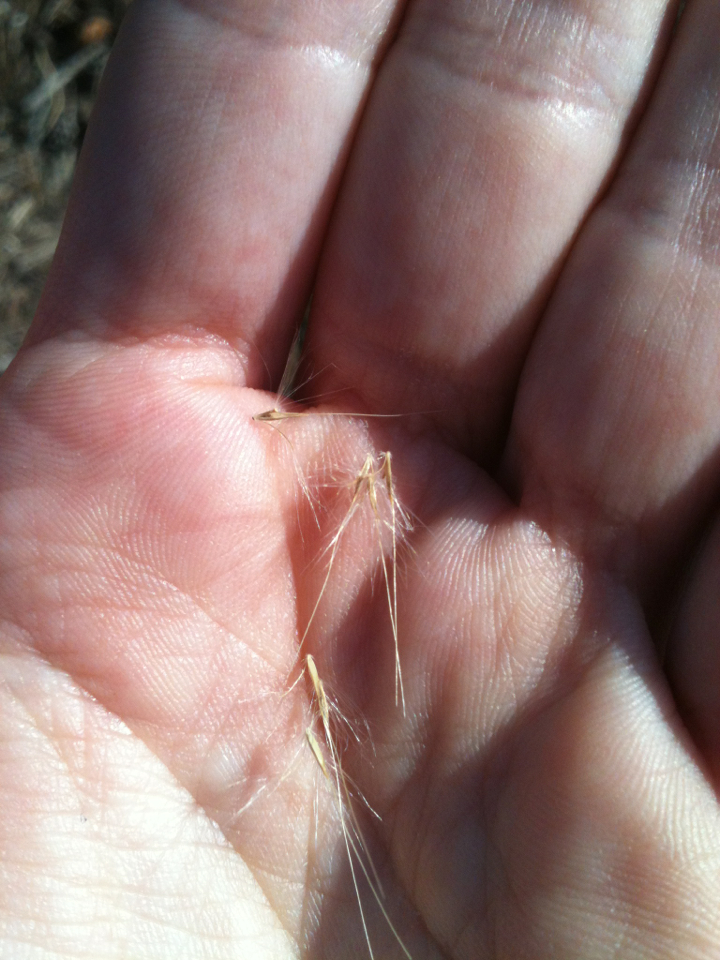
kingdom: Plantae
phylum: Tracheophyta
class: Liliopsida
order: Poales
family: Poaceae
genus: Andropogon
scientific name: Andropogon virginicus
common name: Broomsedge bluestem
